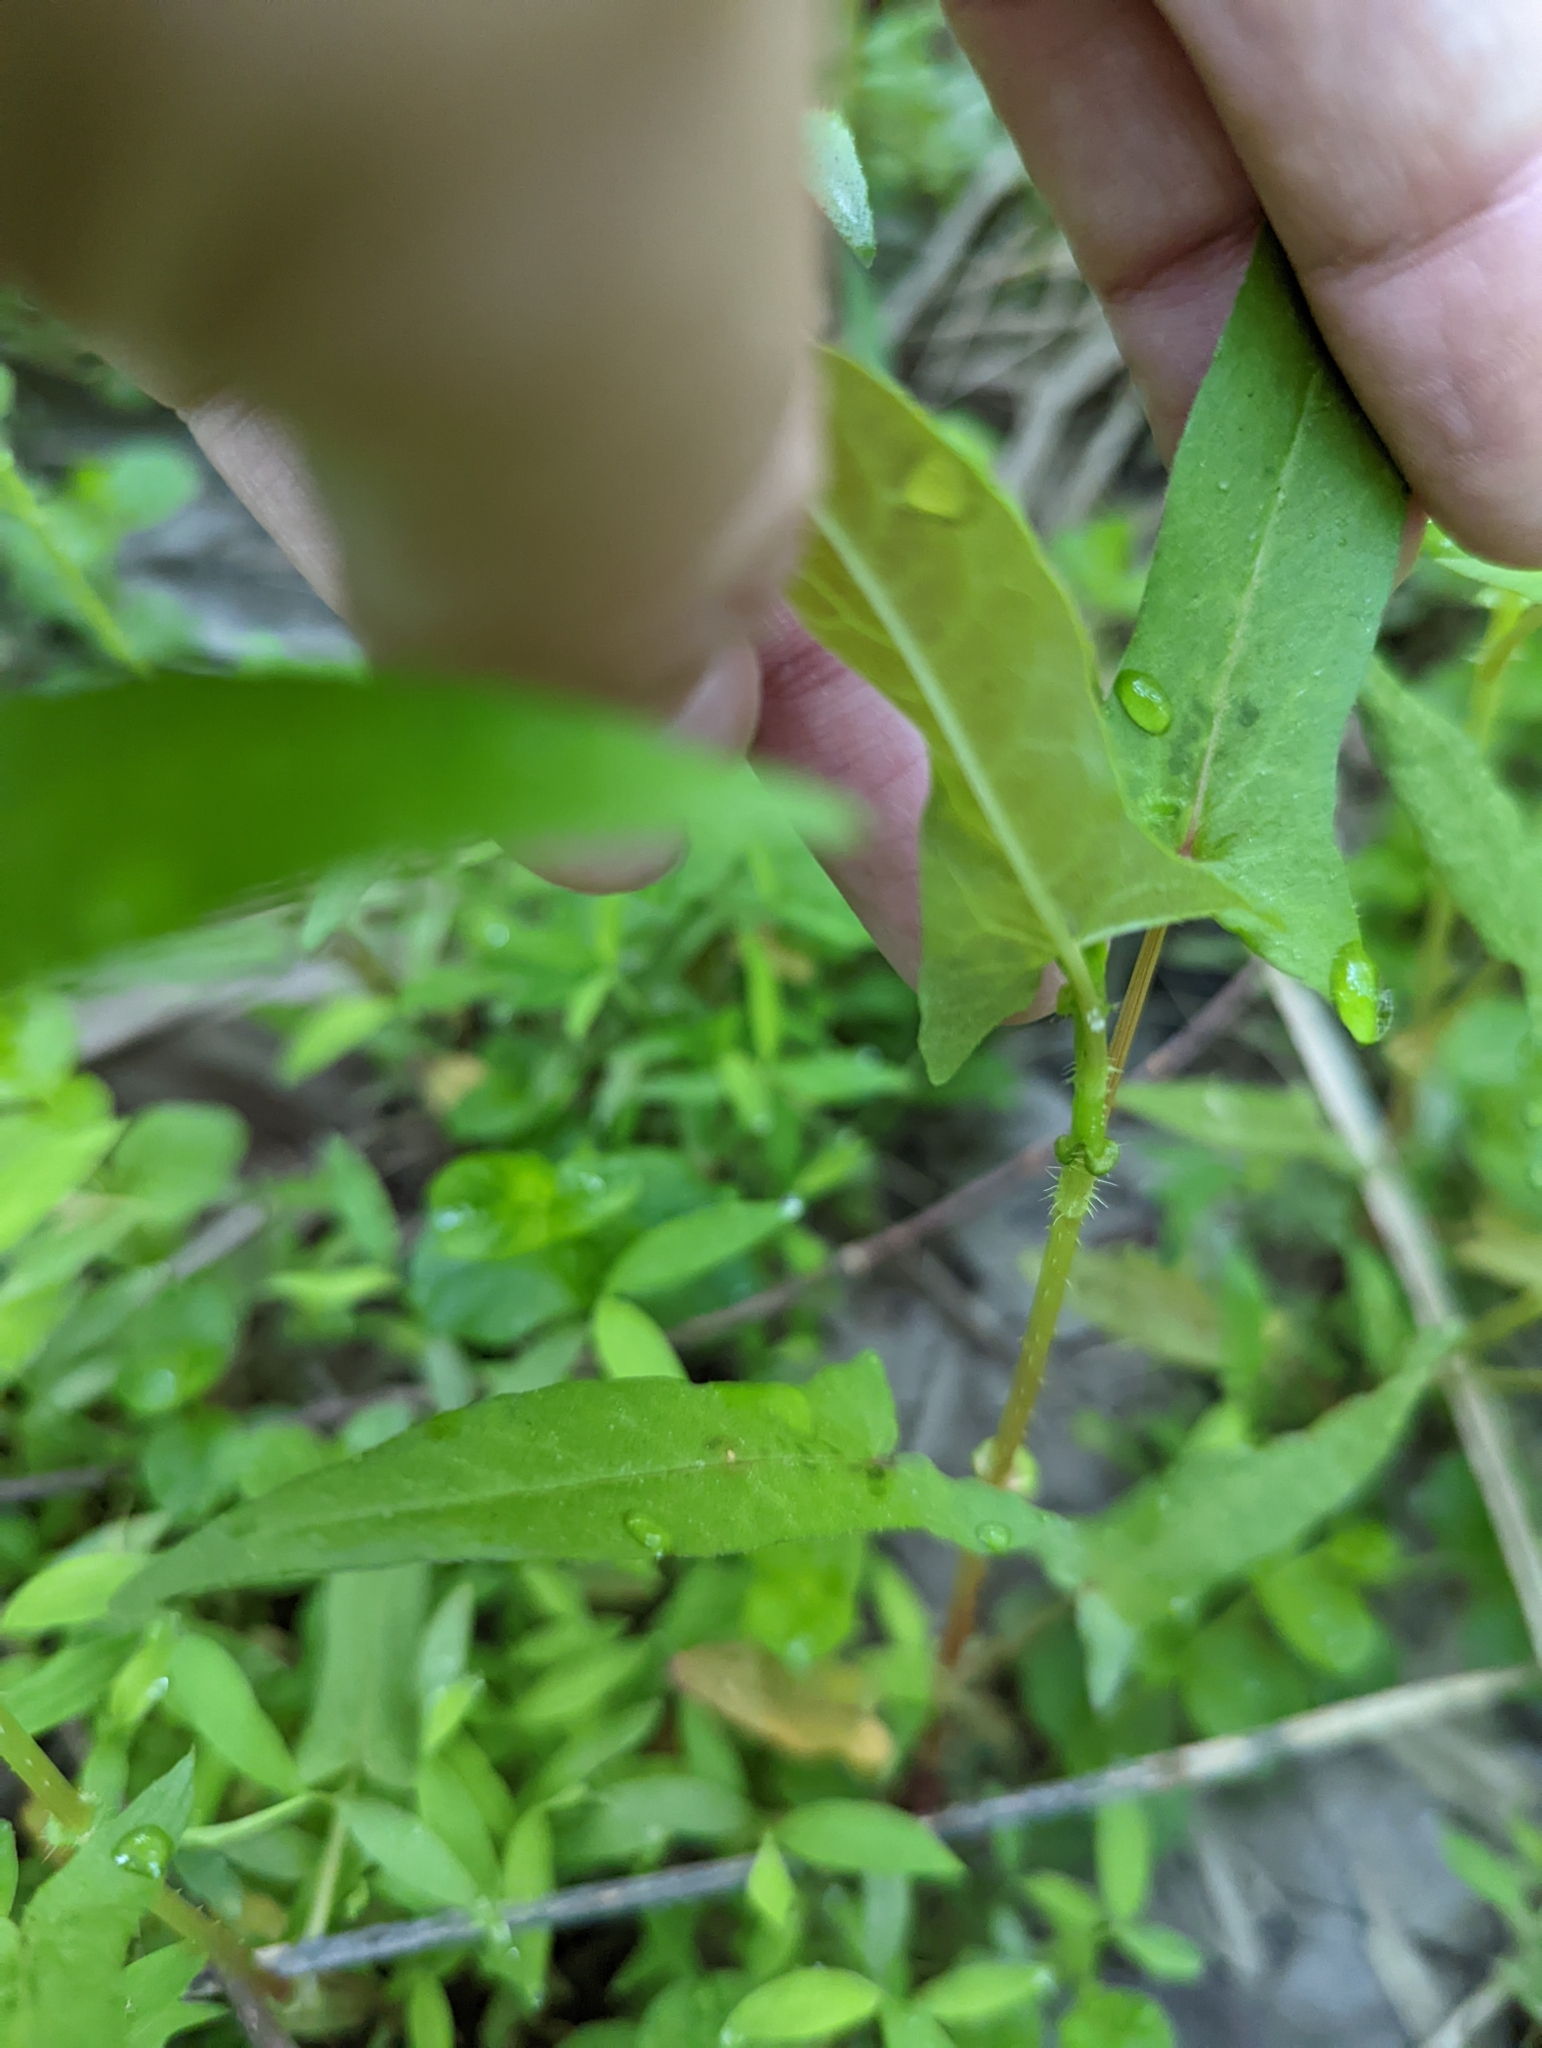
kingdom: Plantae
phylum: Tracheophyta
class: Magnoliopsida
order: Caryophyllales
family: Polygonaceae
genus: Persicaria
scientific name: Persicaria arifolia
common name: Halberd-leaved tear-thumb
